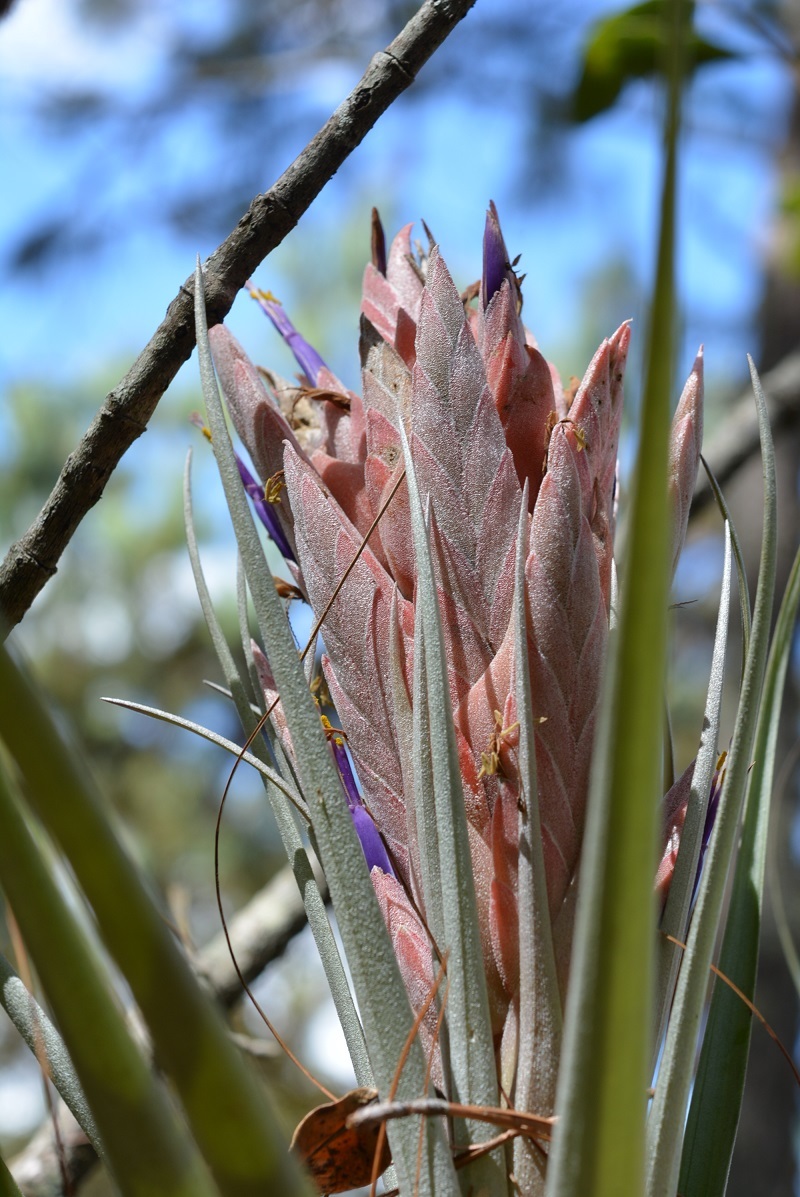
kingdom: Plantae
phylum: Tracheophyta
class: Liliopsida
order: Poales
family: Bromeliaceae
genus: Tillandsia
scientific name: Tillandsia carlsoniae
